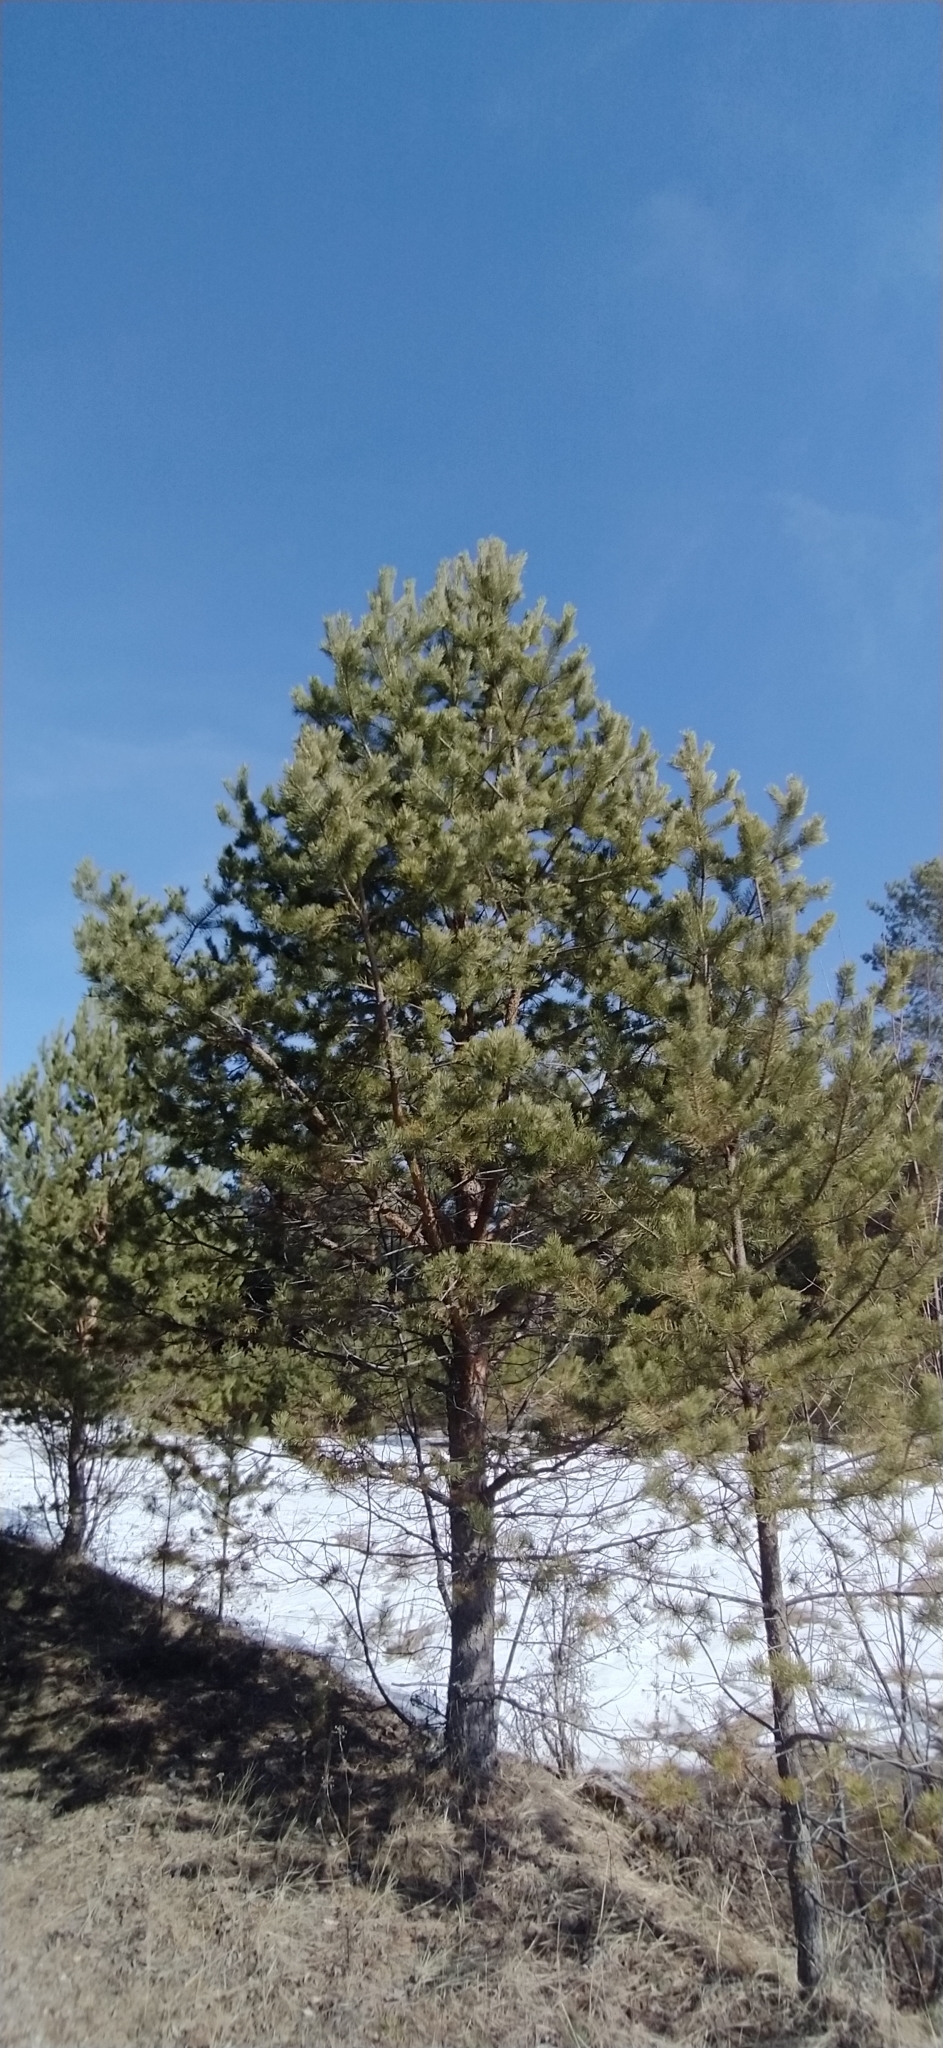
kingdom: Plantae
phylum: Tracheophyta
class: Pinopsida
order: Pinales
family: Pinaceae
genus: Pinus
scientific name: Pinus sylvestris
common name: Scots pine
